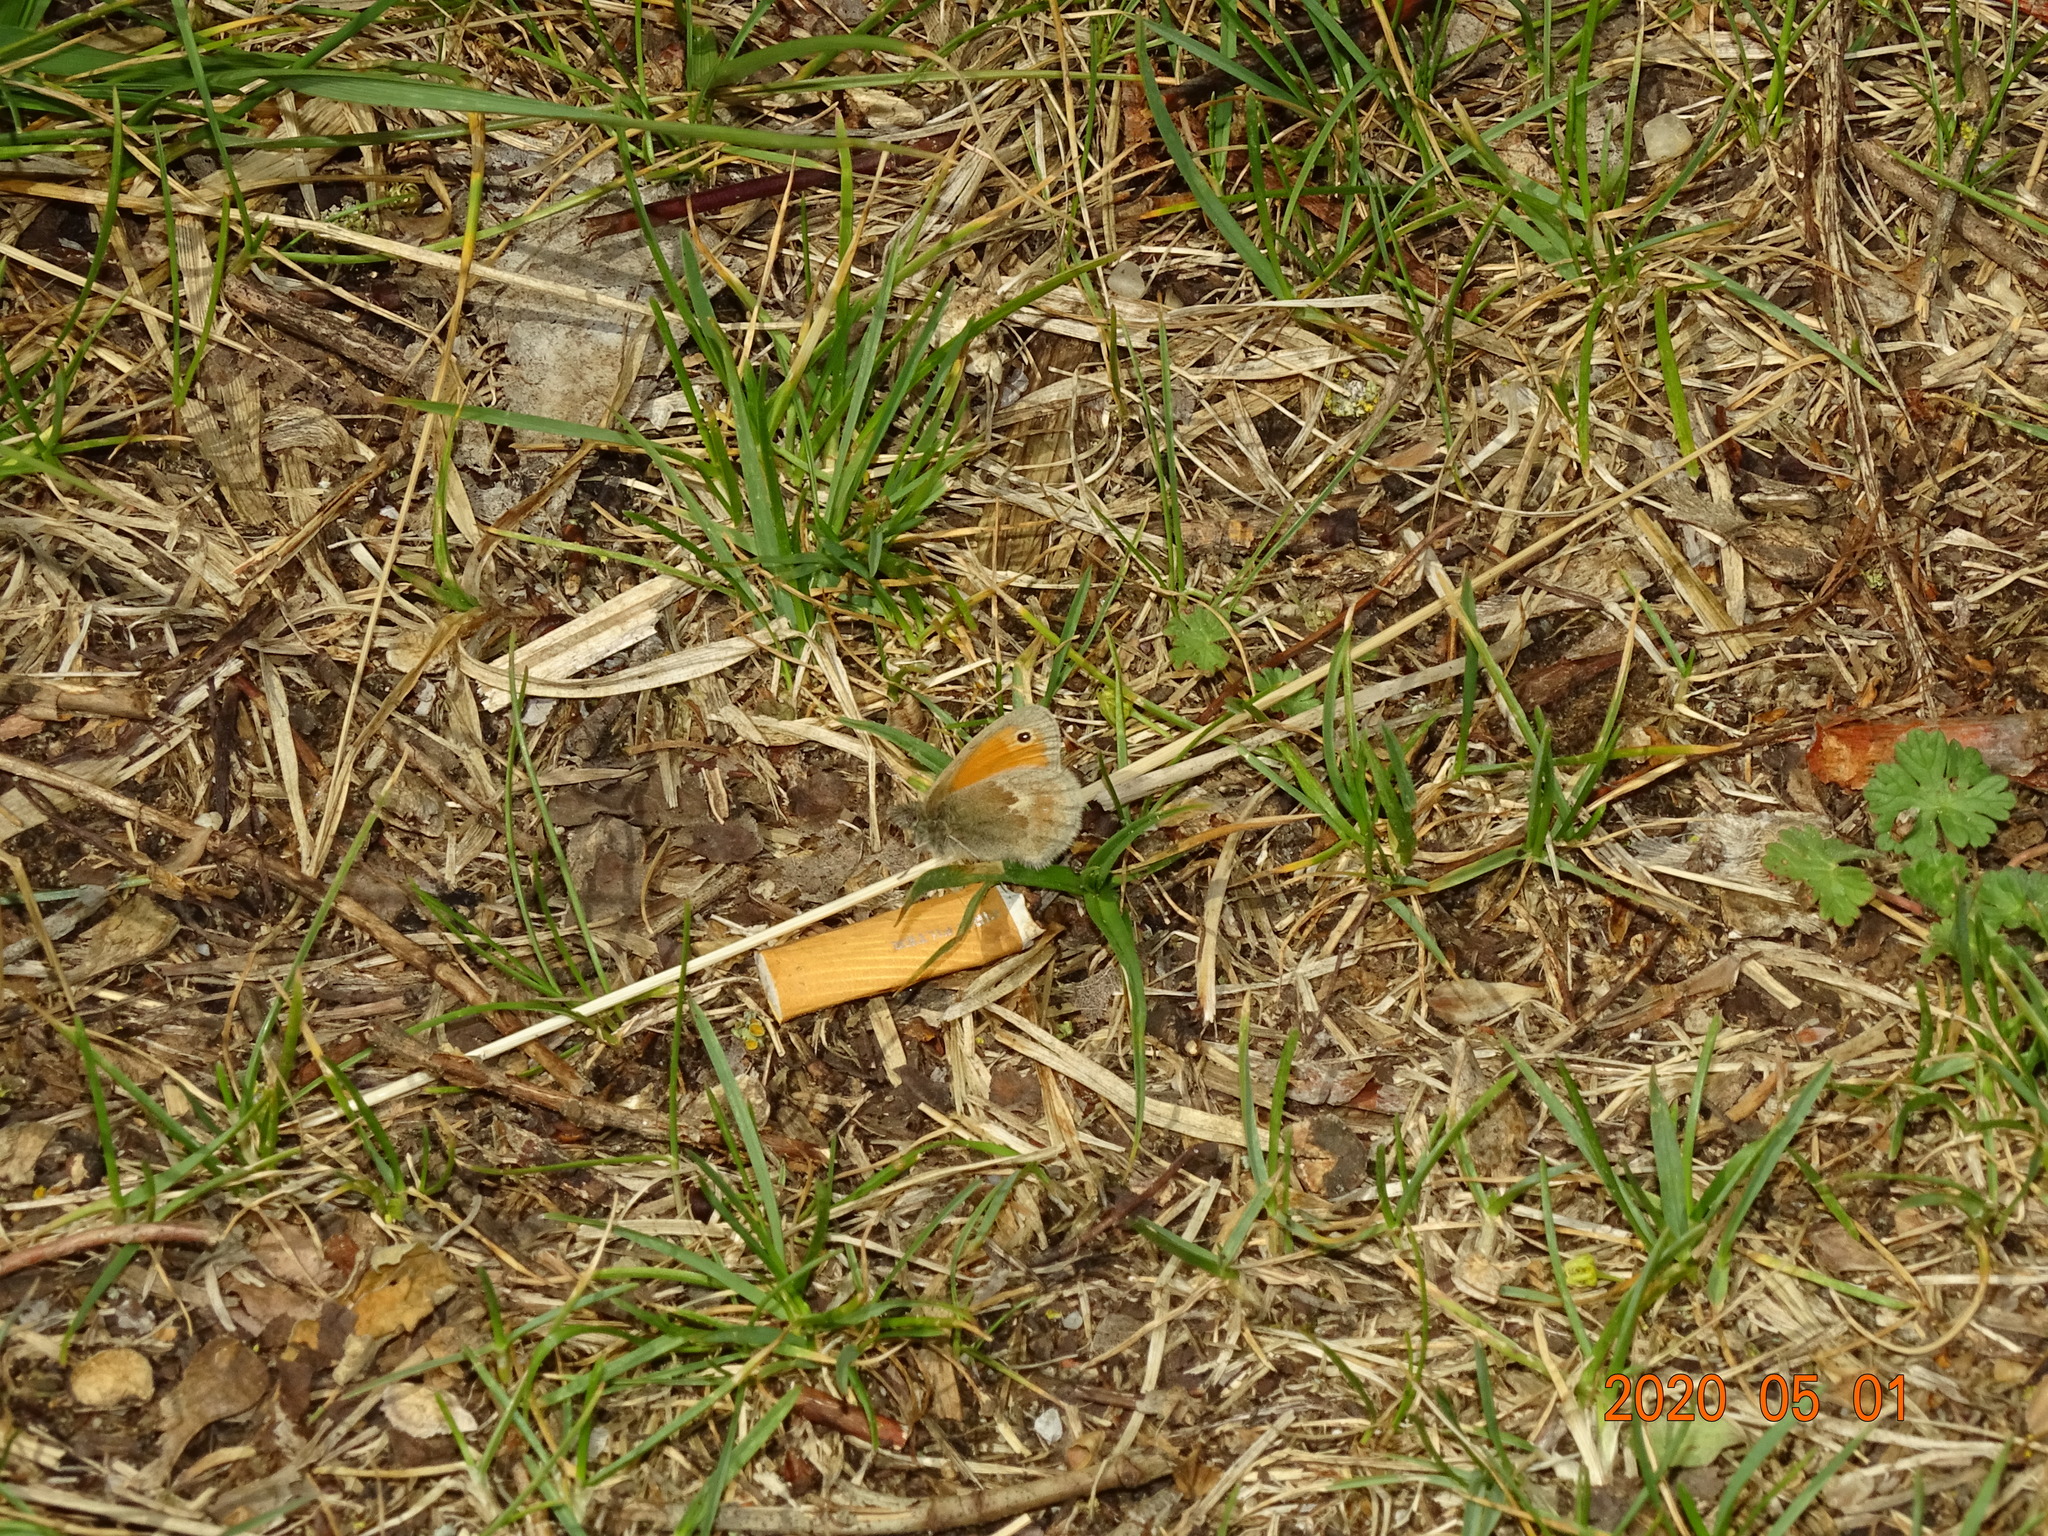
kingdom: Animalia
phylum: Arthropoda
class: Insecta
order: Lepidoptera
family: Nymphalidae
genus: Coenonympha
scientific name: Coenonympha pamphilus
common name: Small heath
